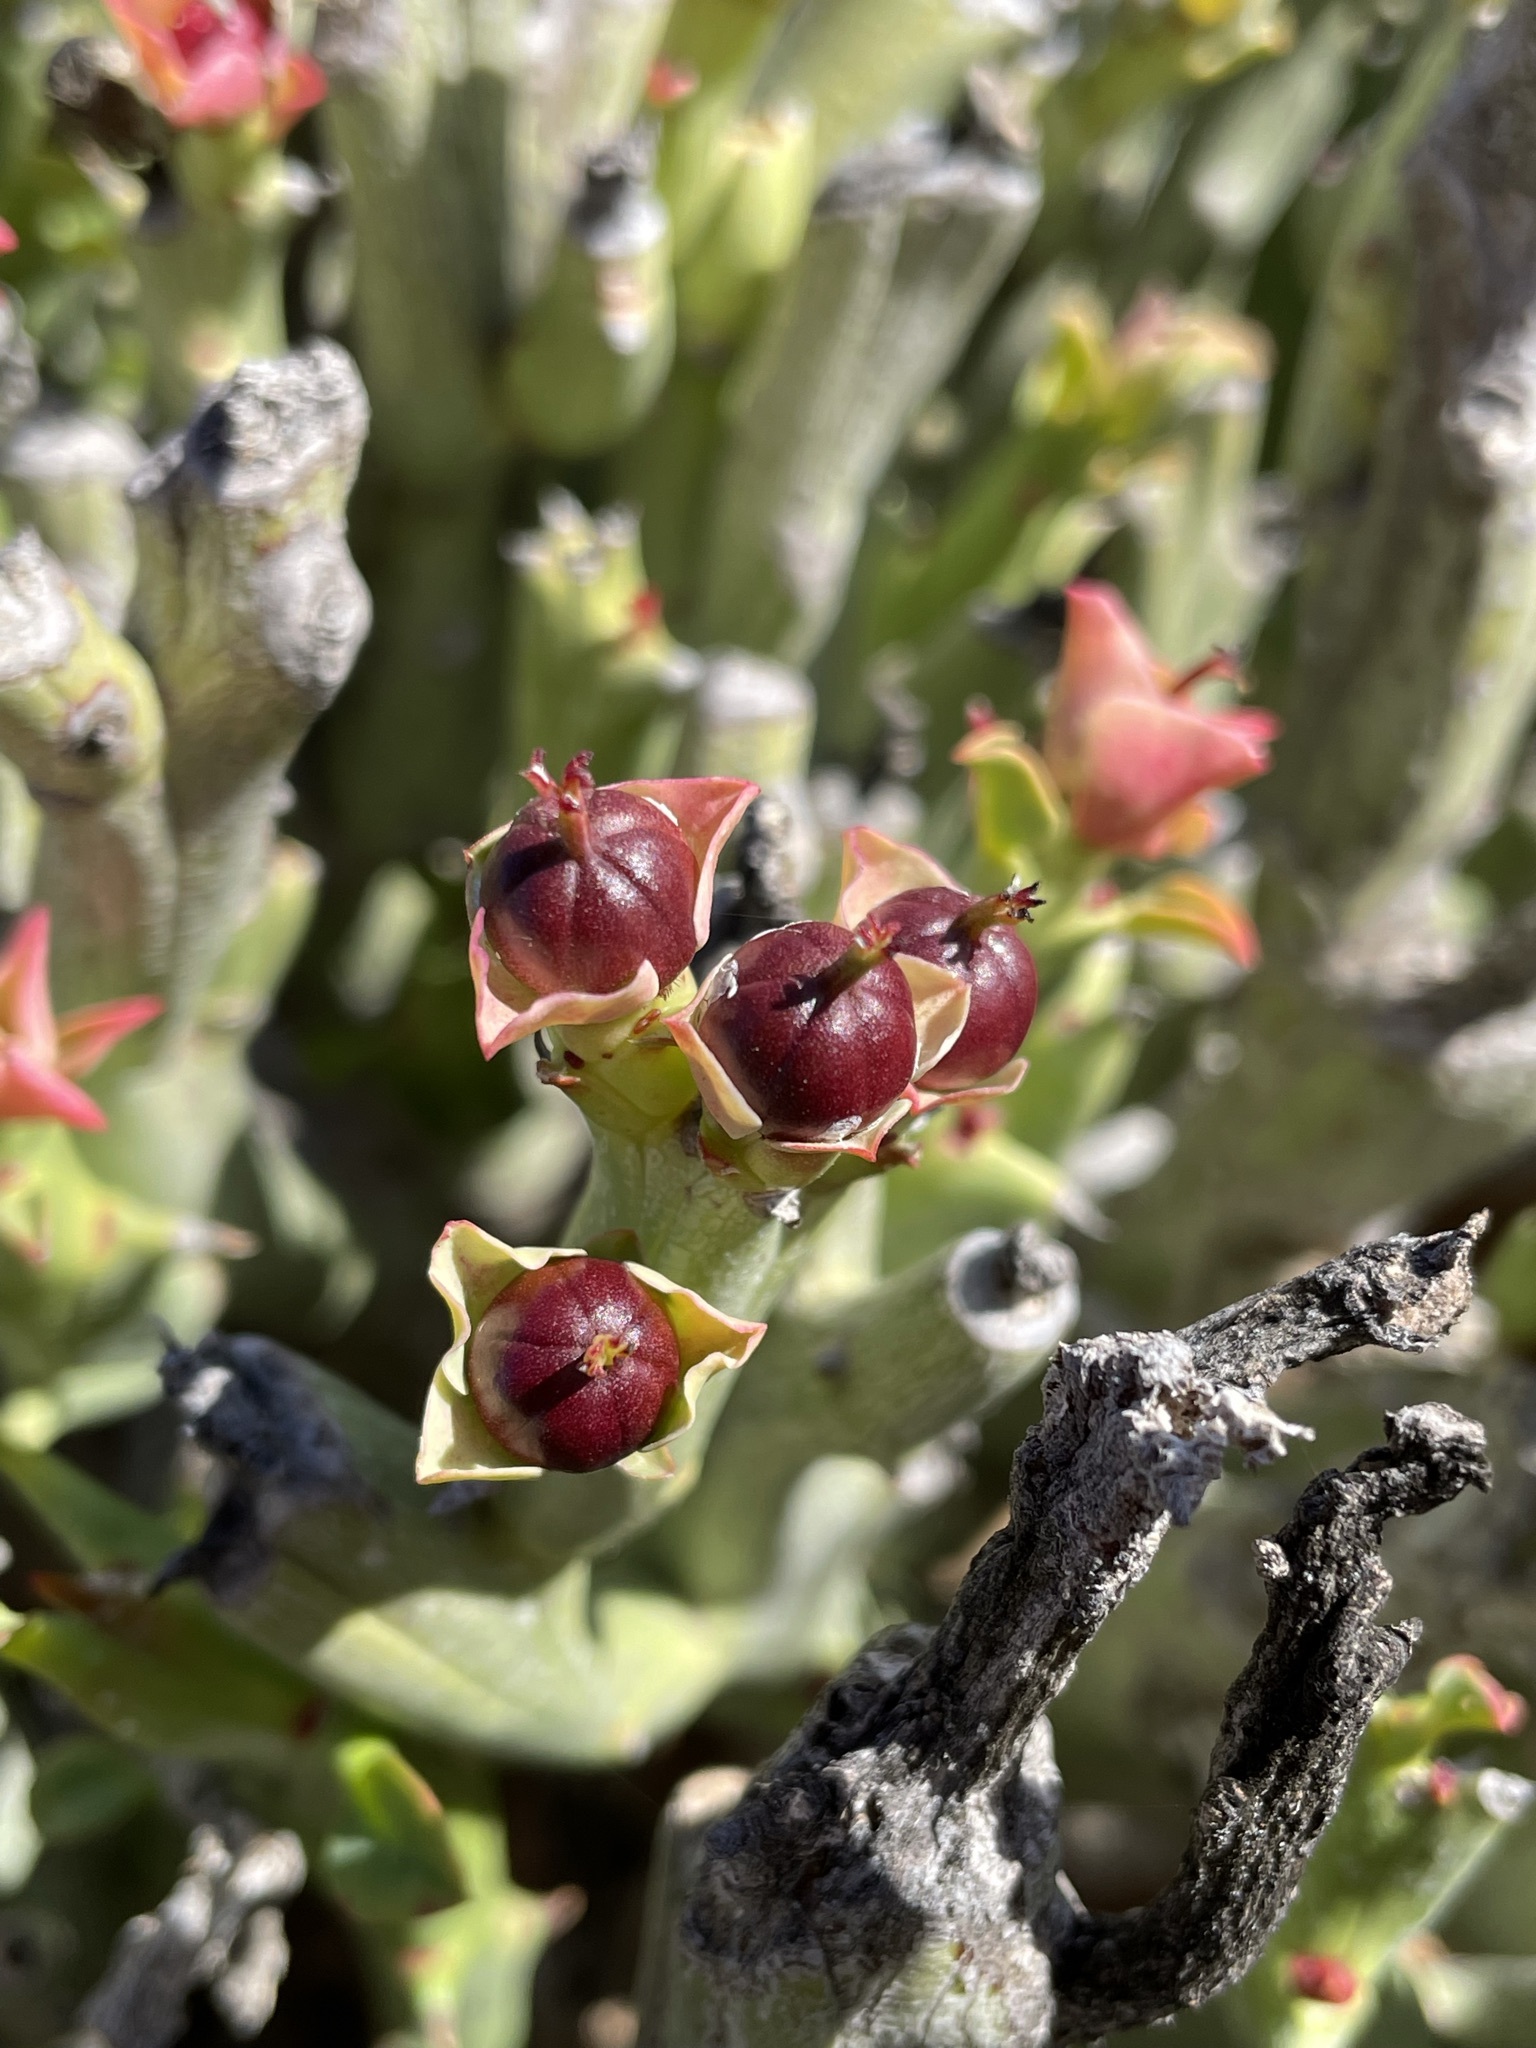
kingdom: Plantae
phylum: Tracheophyta
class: Magnoliopsida
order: Malpighiales
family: Euphorbiaceae
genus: Euphorbia
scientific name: Euphorbia hamata
